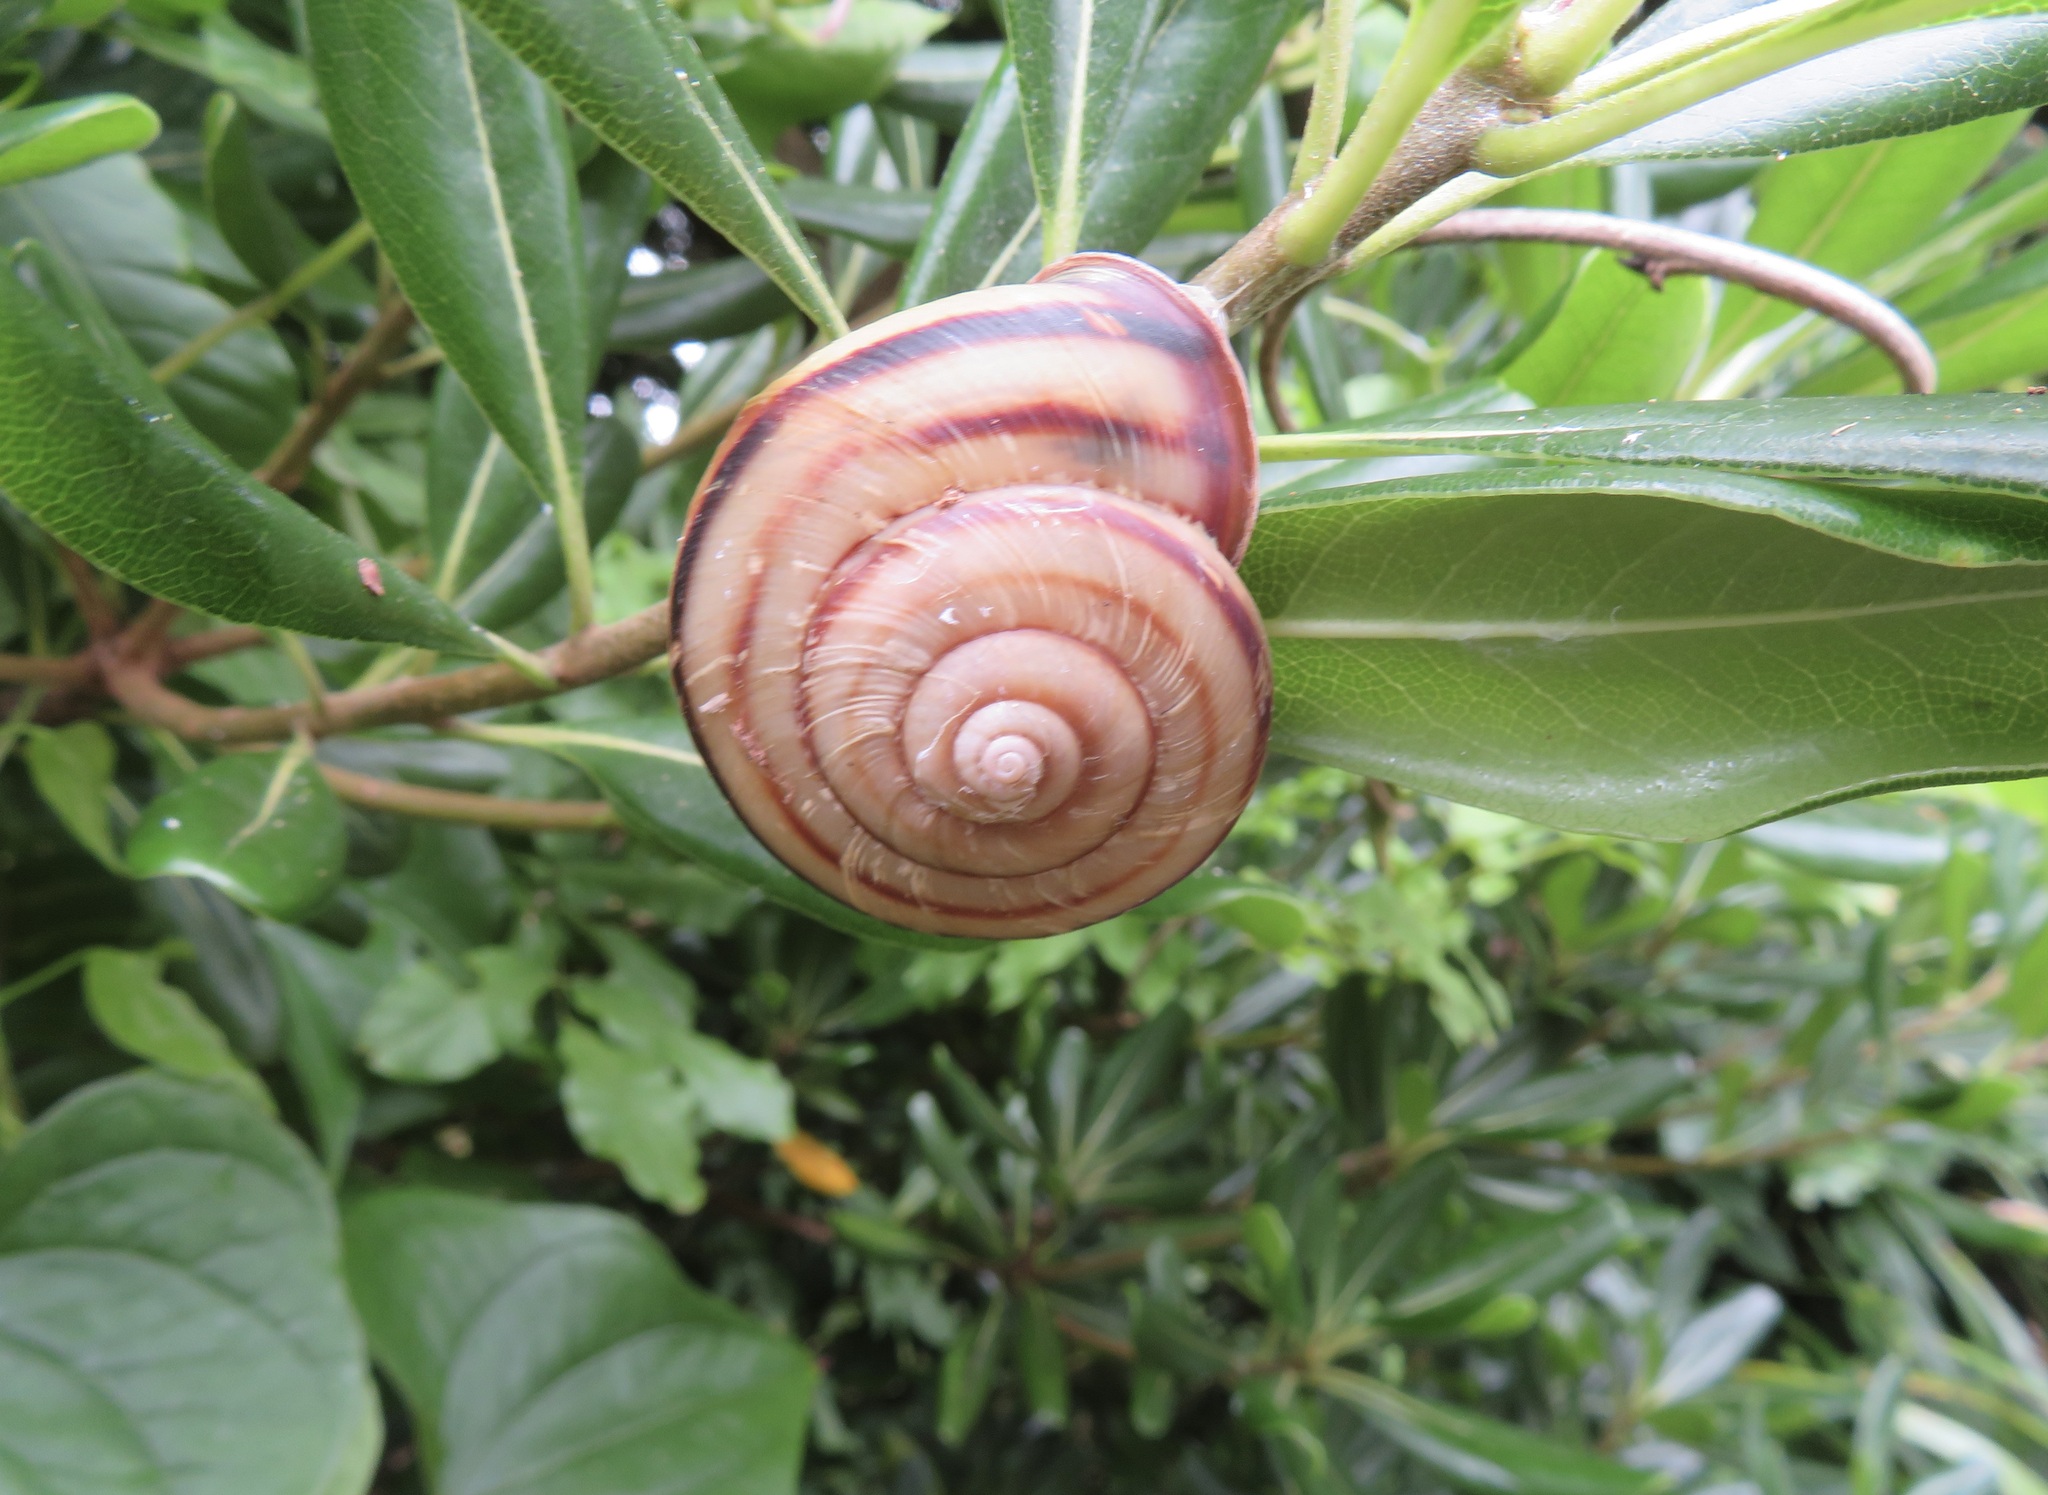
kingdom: Animalia
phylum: Mollusca
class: Gastropoda
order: Stylommatophora
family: Camaenidae
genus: Euhadra
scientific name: Euhadra peliomphala
